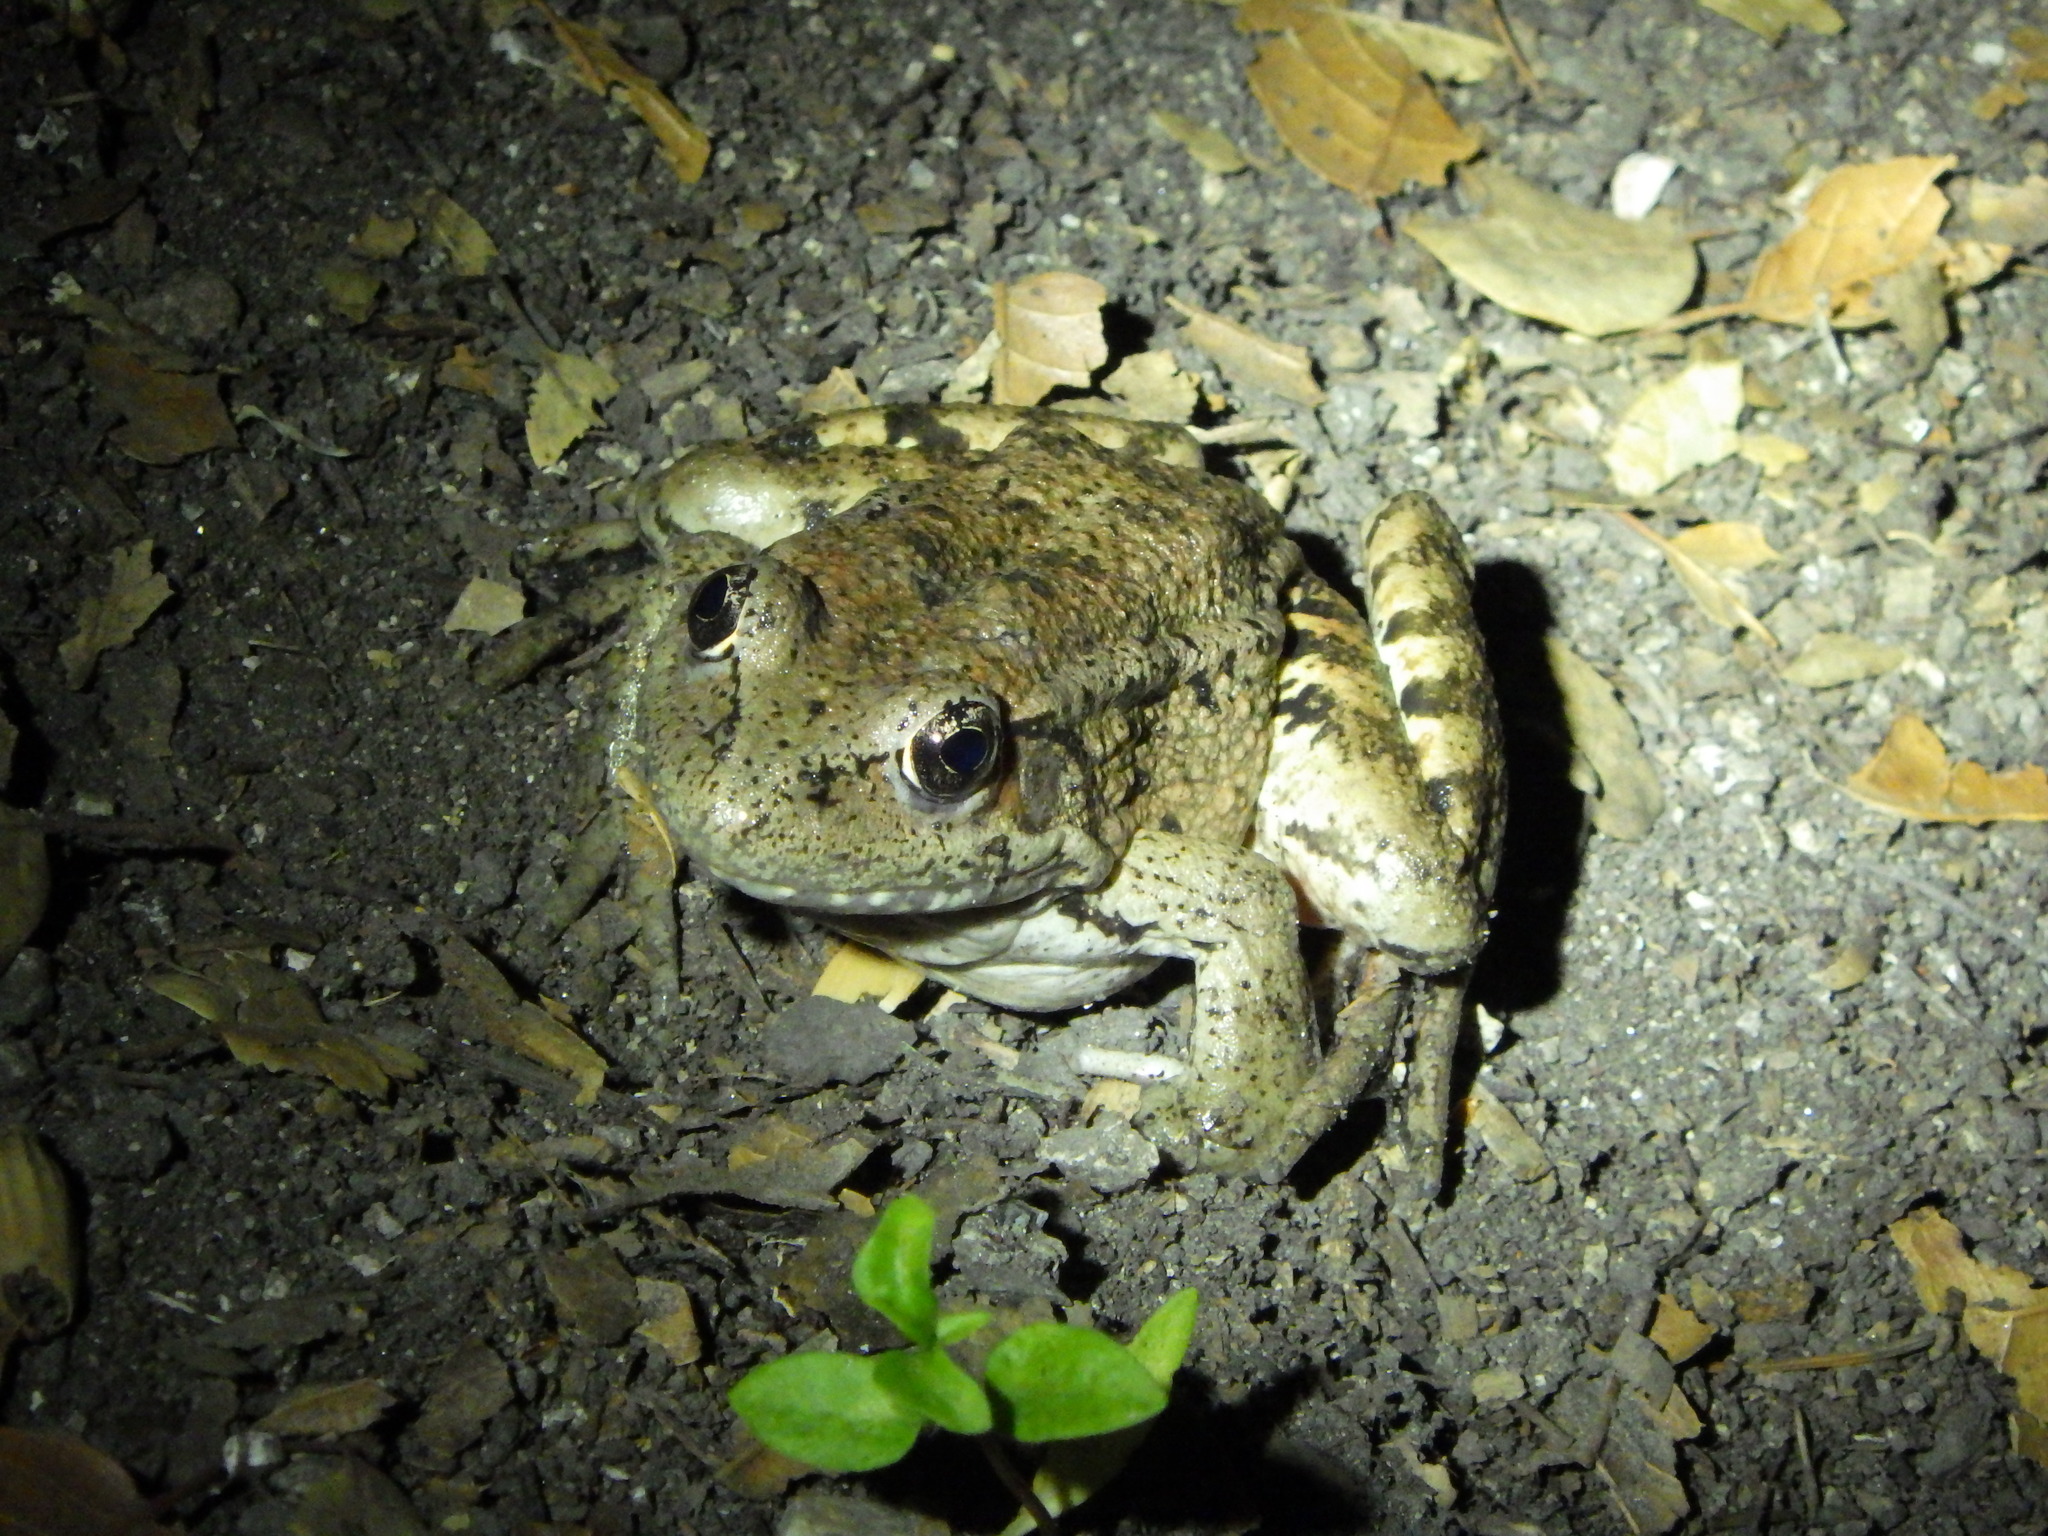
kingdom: Animalia
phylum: Chordata
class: Amphibia
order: Anura
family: Ranidae
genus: Rana
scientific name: Rana draytonii
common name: California red-legged frog
